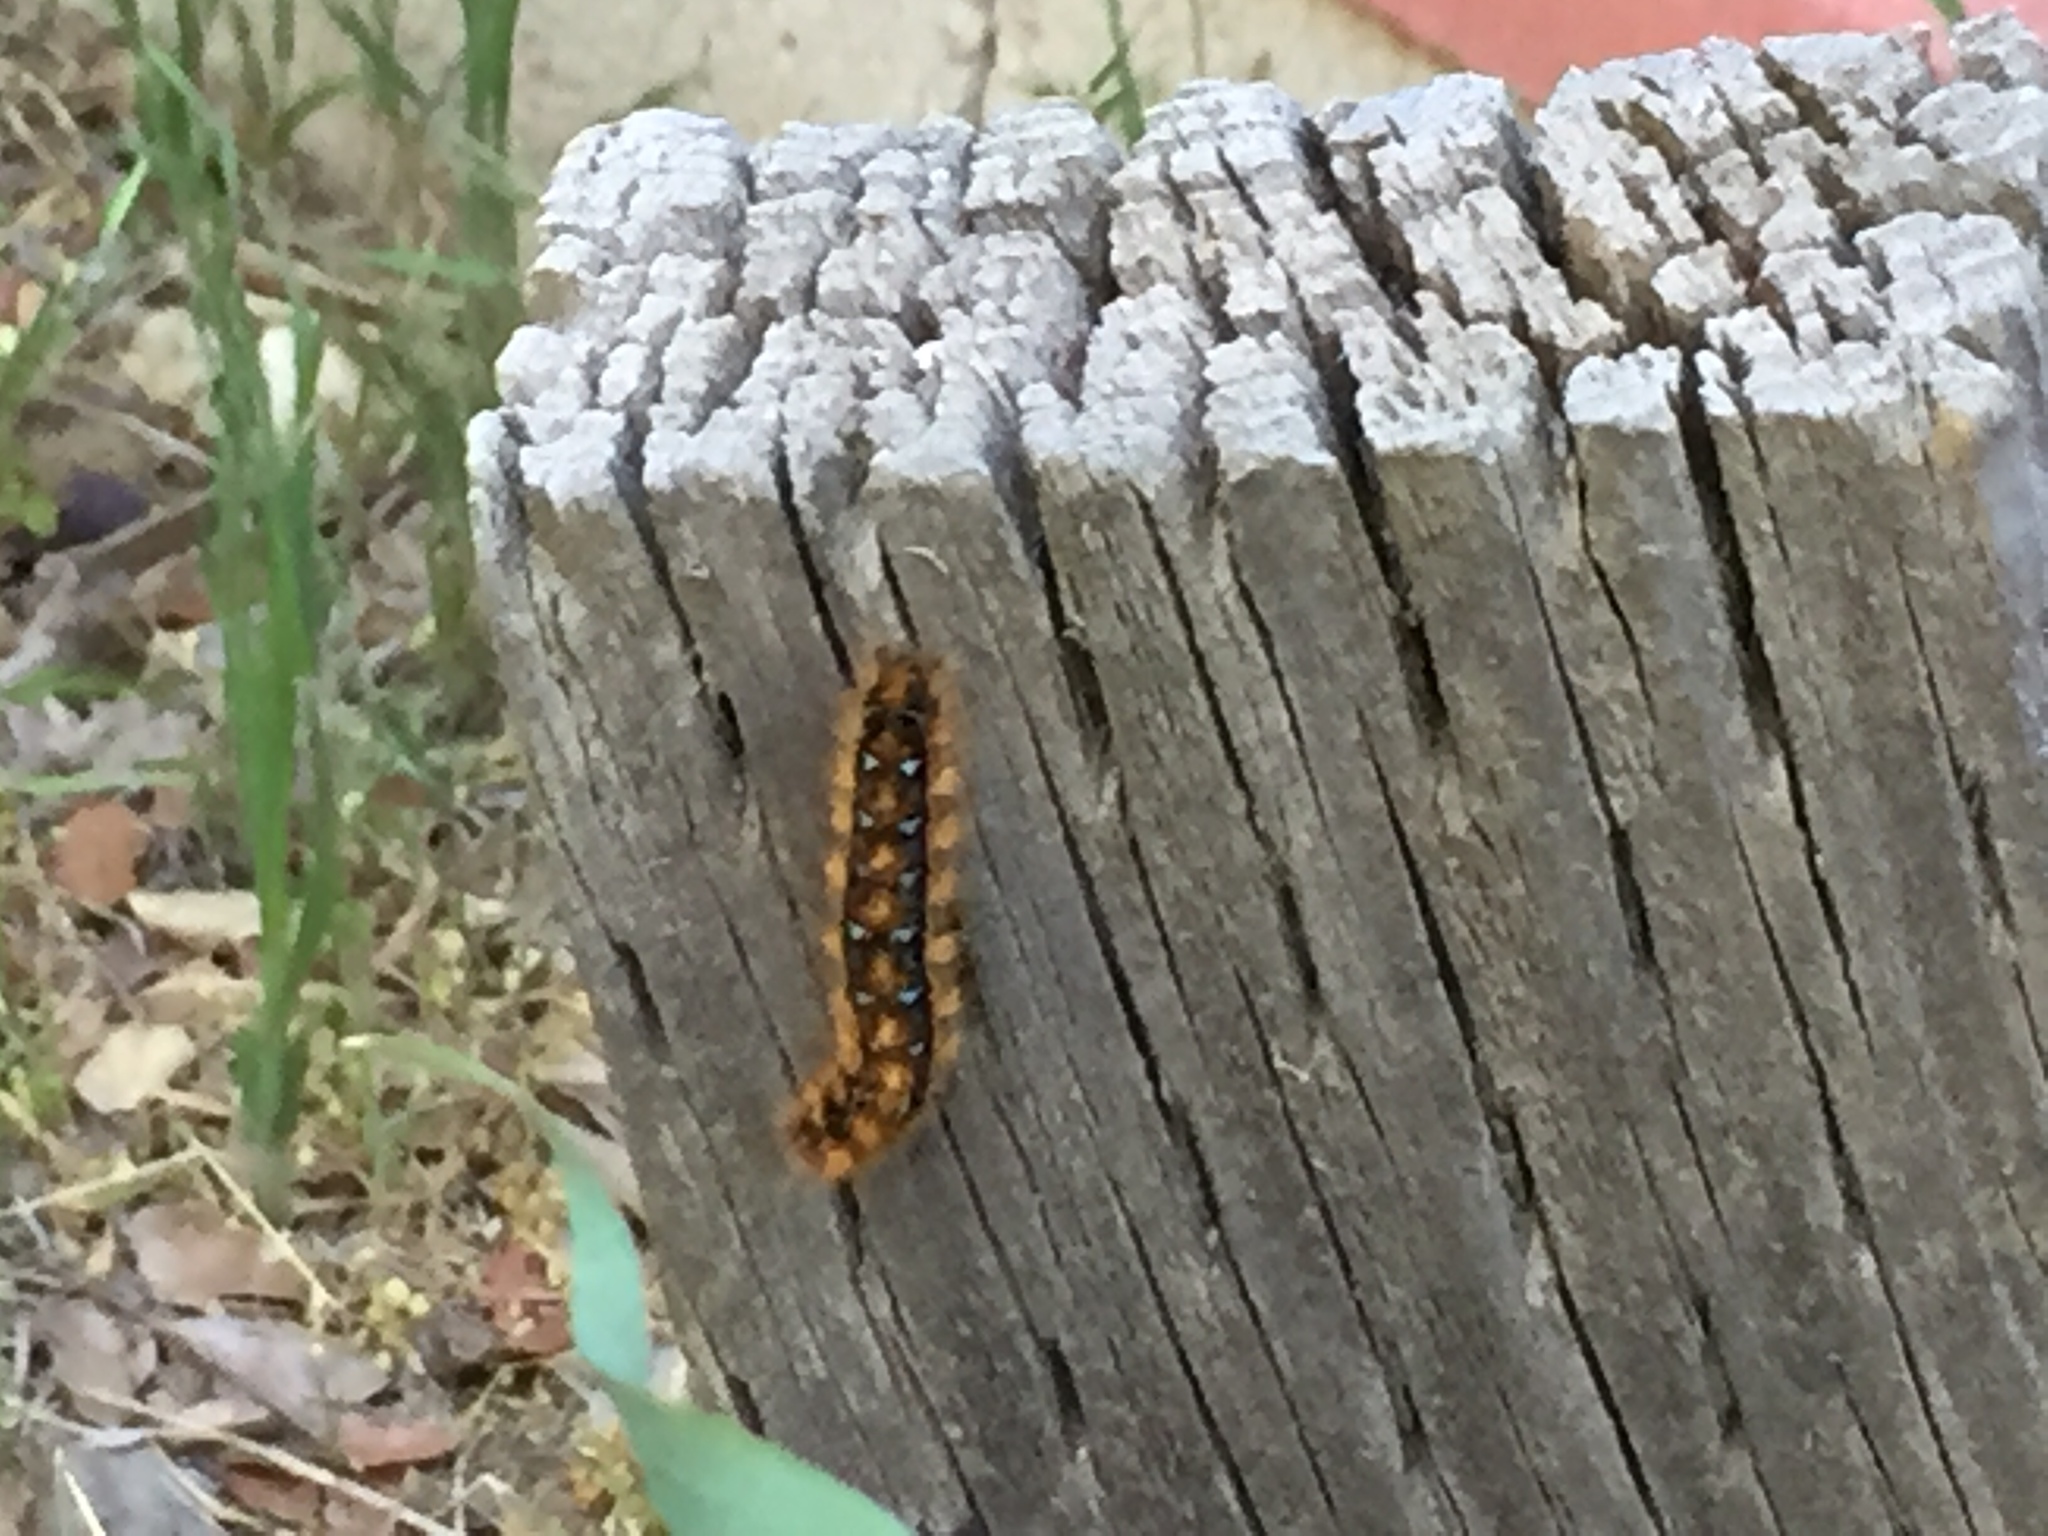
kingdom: Animalia
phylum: Arthropoda
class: Insecta
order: Lepidoptera
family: Lasiocampidae
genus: Malacosoma
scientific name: Malacosoma constricta
